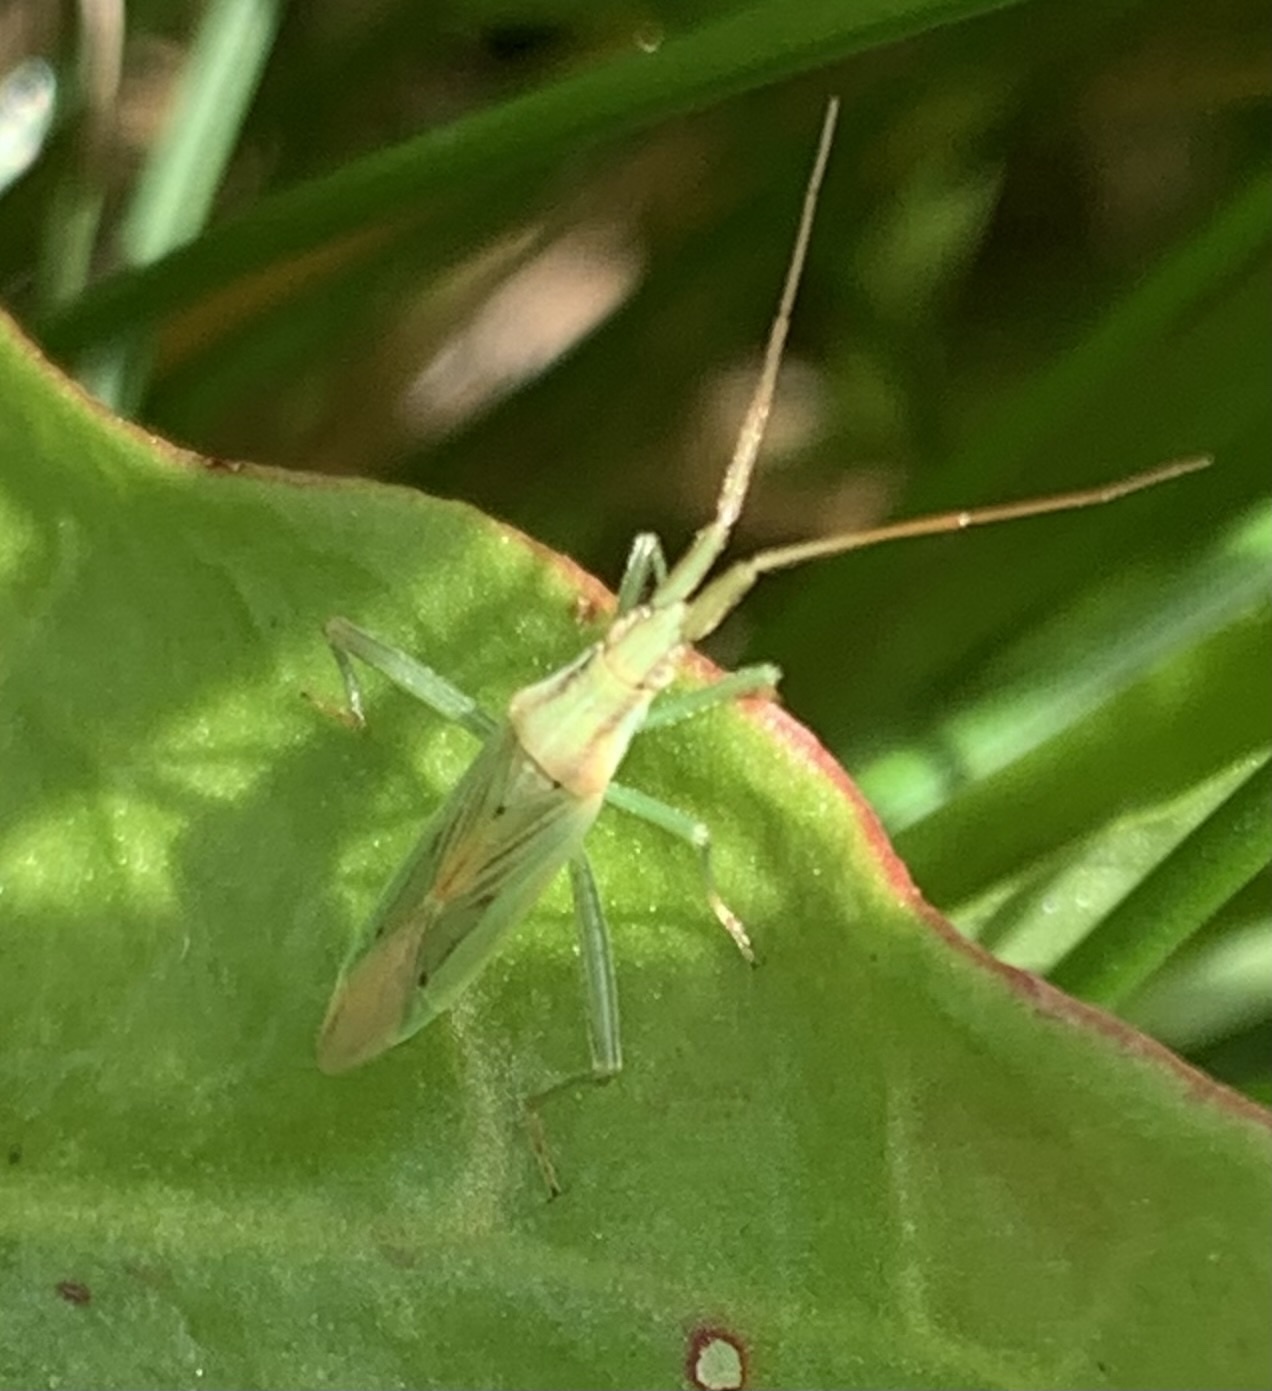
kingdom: Animalia
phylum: Arthropoda
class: Insecta
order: Hemiptera
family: Miridae
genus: Stenodema
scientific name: Stenodema laevigata
